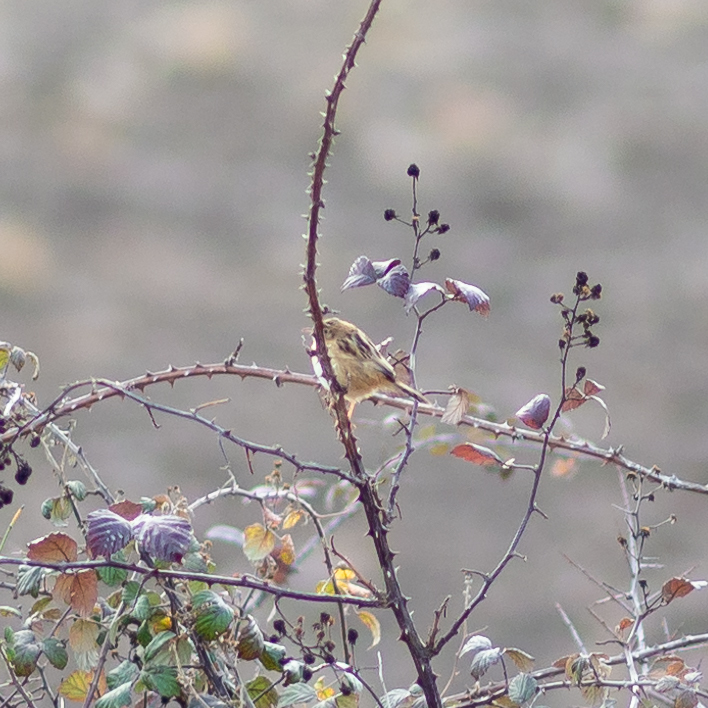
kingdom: Animalia
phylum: Chordata
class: Aves
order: Passeriformes
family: Cisticolidae
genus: Cisticola
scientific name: Cisticola juncidis
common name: Zitting cisticola
